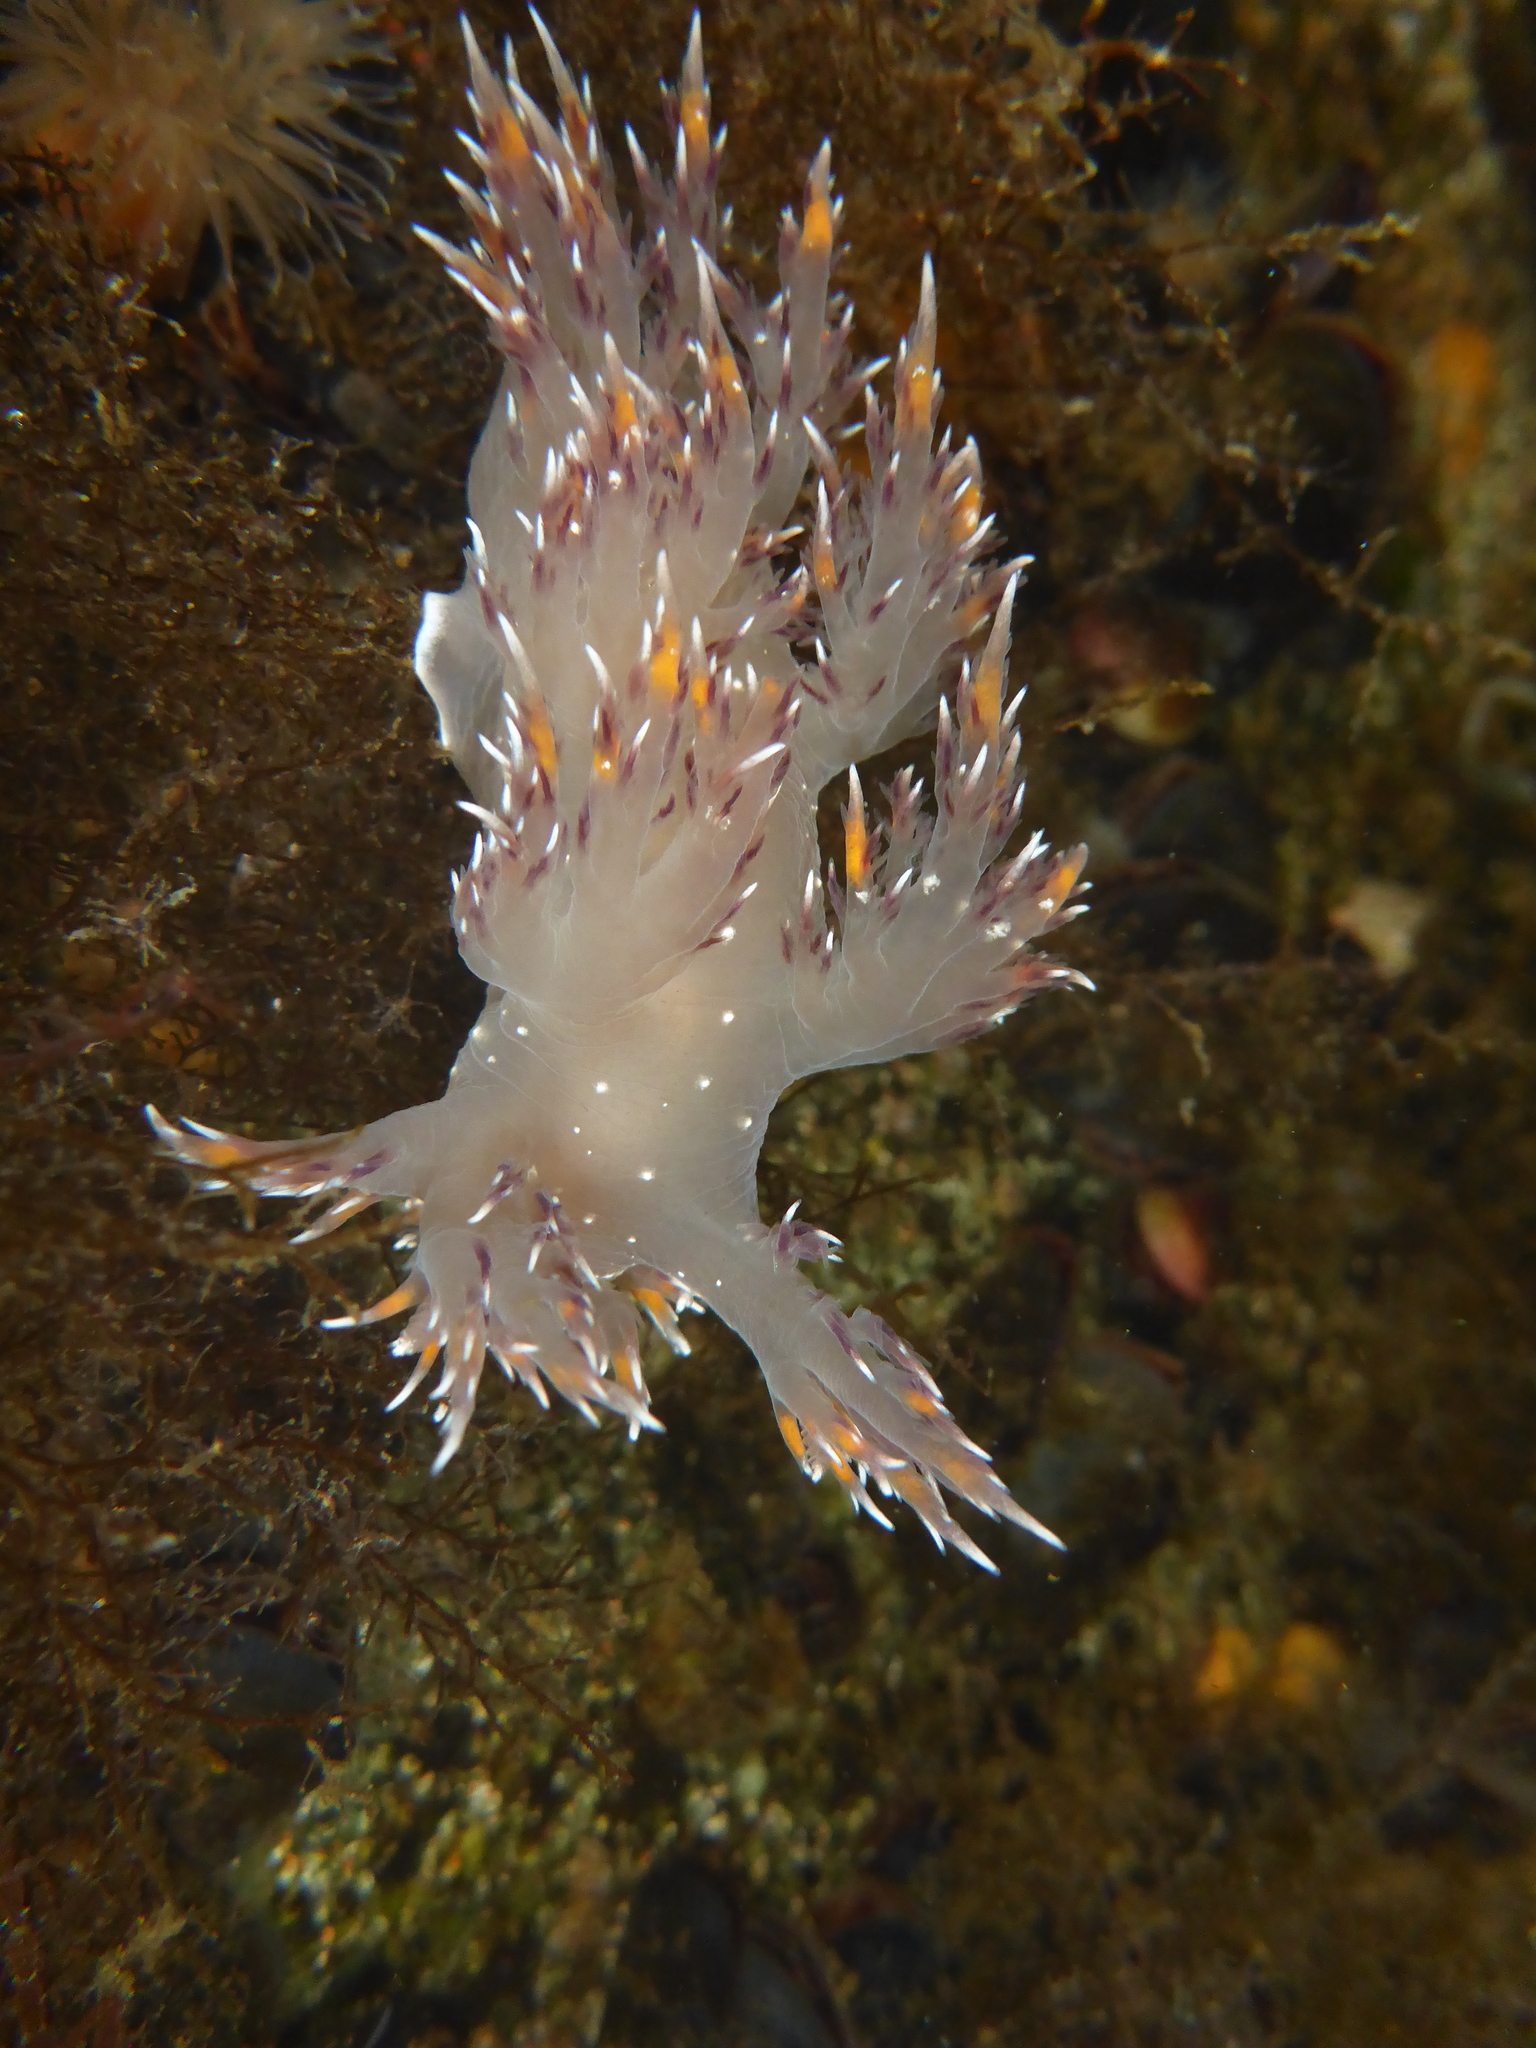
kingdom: Animalia
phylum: Mollusca
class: Gastropoda
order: Nudibranchia
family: Dendronotidae
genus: Dendronotus
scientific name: Dendronotus iris
